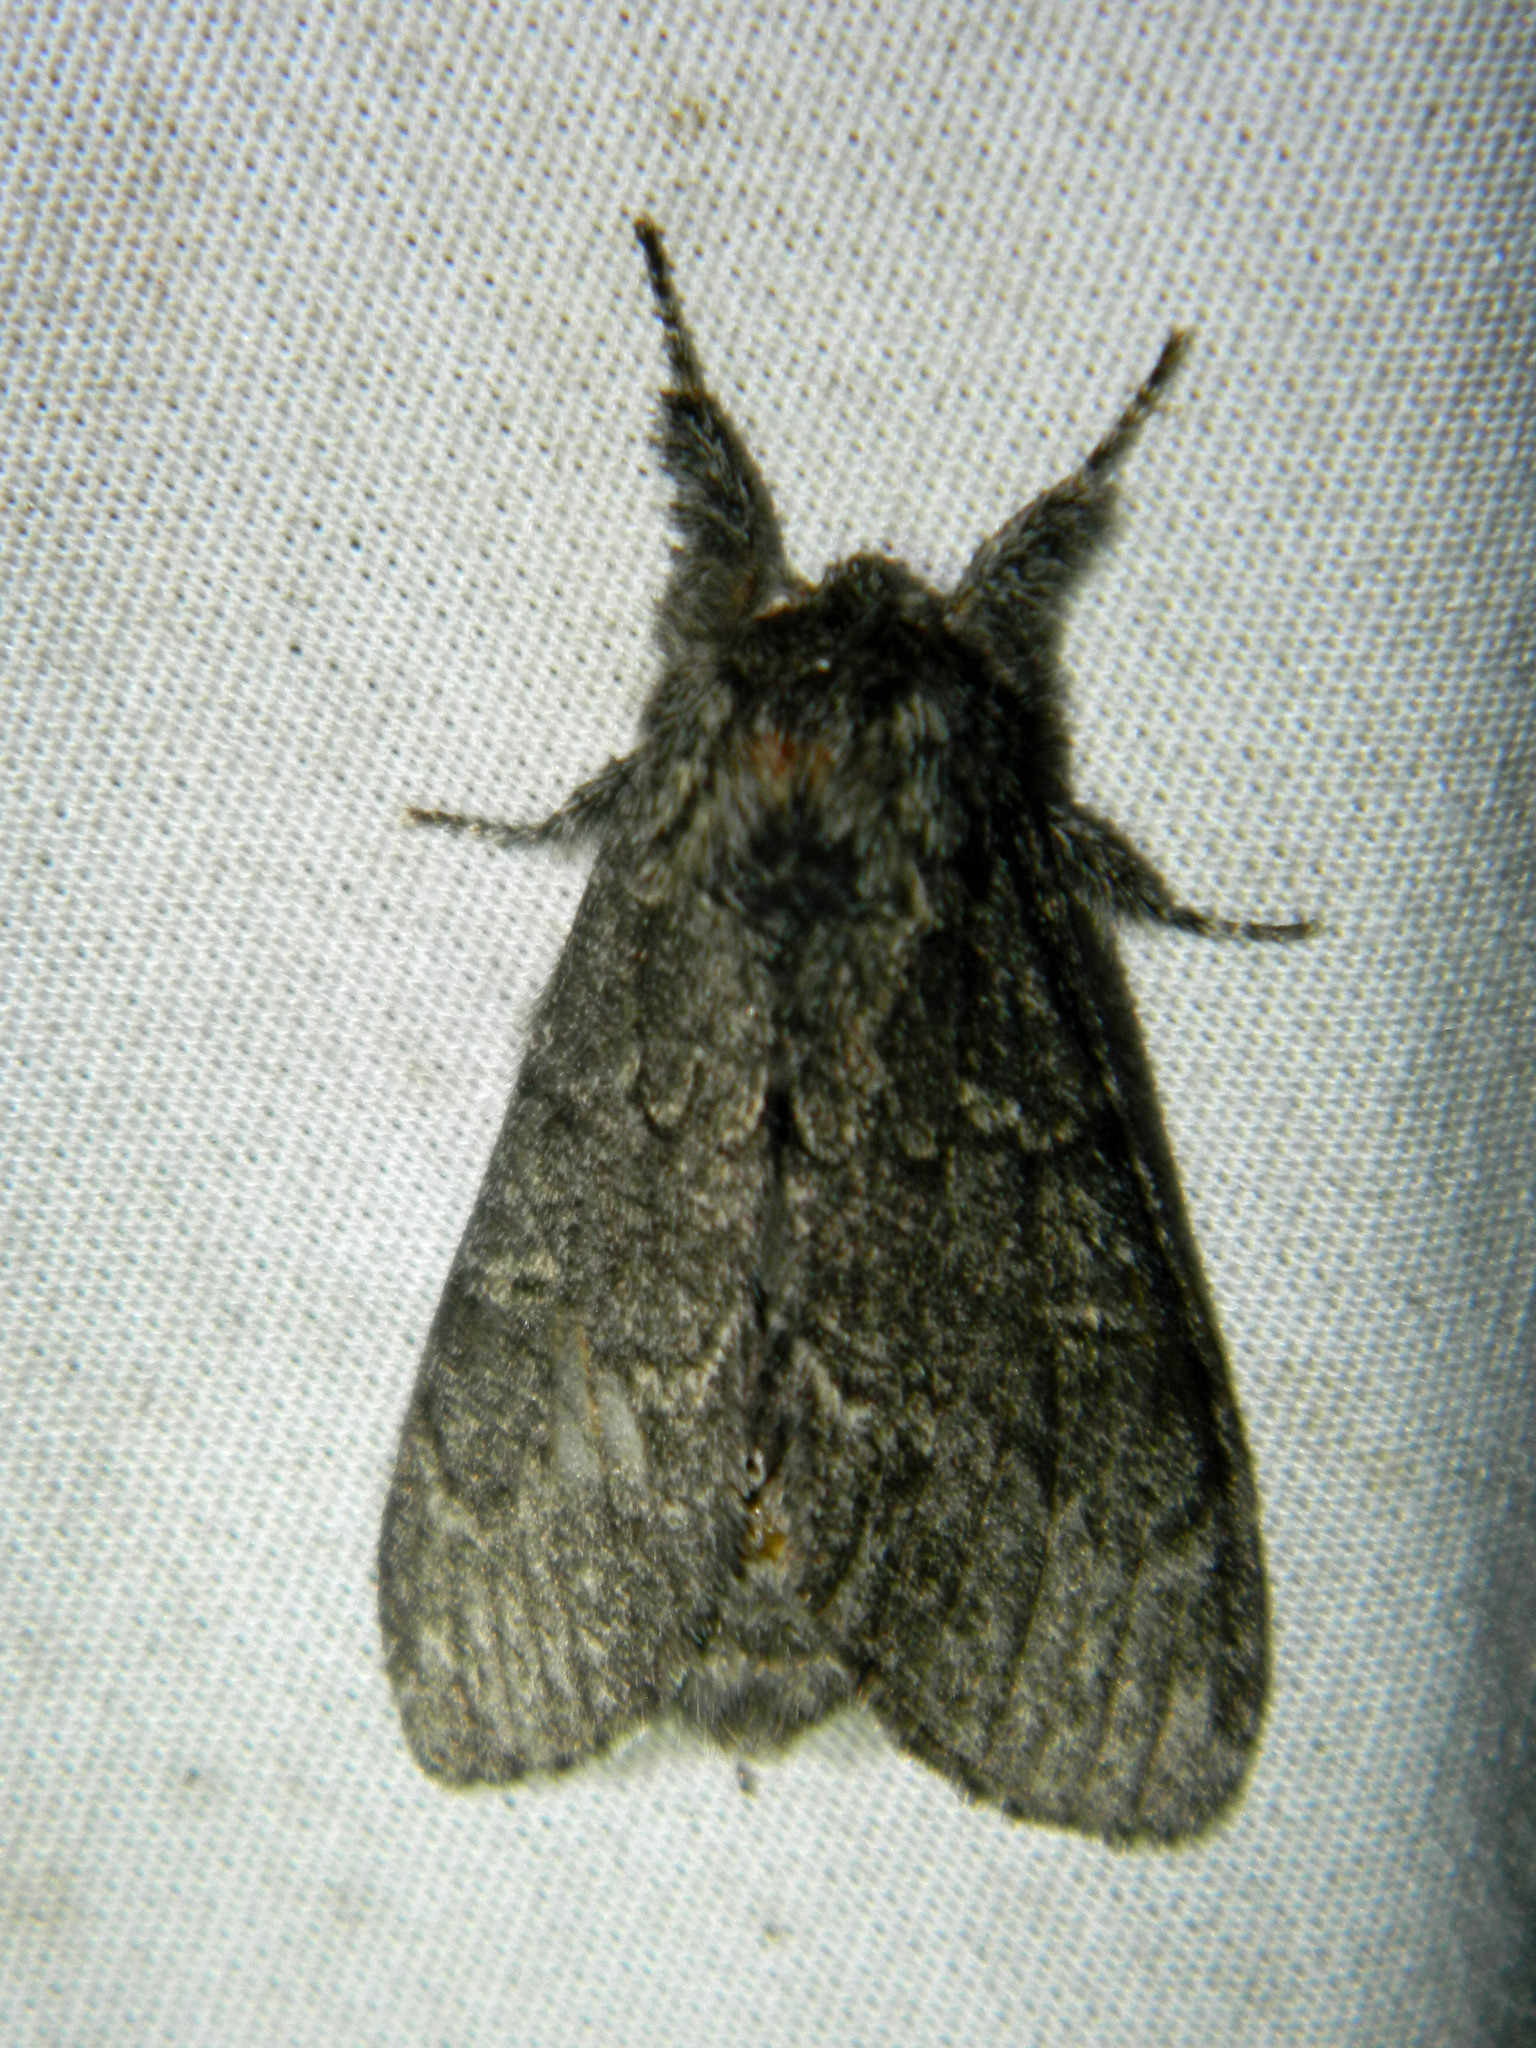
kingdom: Animalia
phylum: Arthropoda
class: Insecta
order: Lepidoptera
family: Notodontidae
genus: Notodonta
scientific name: Notodonta torva
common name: Large dark prominent
